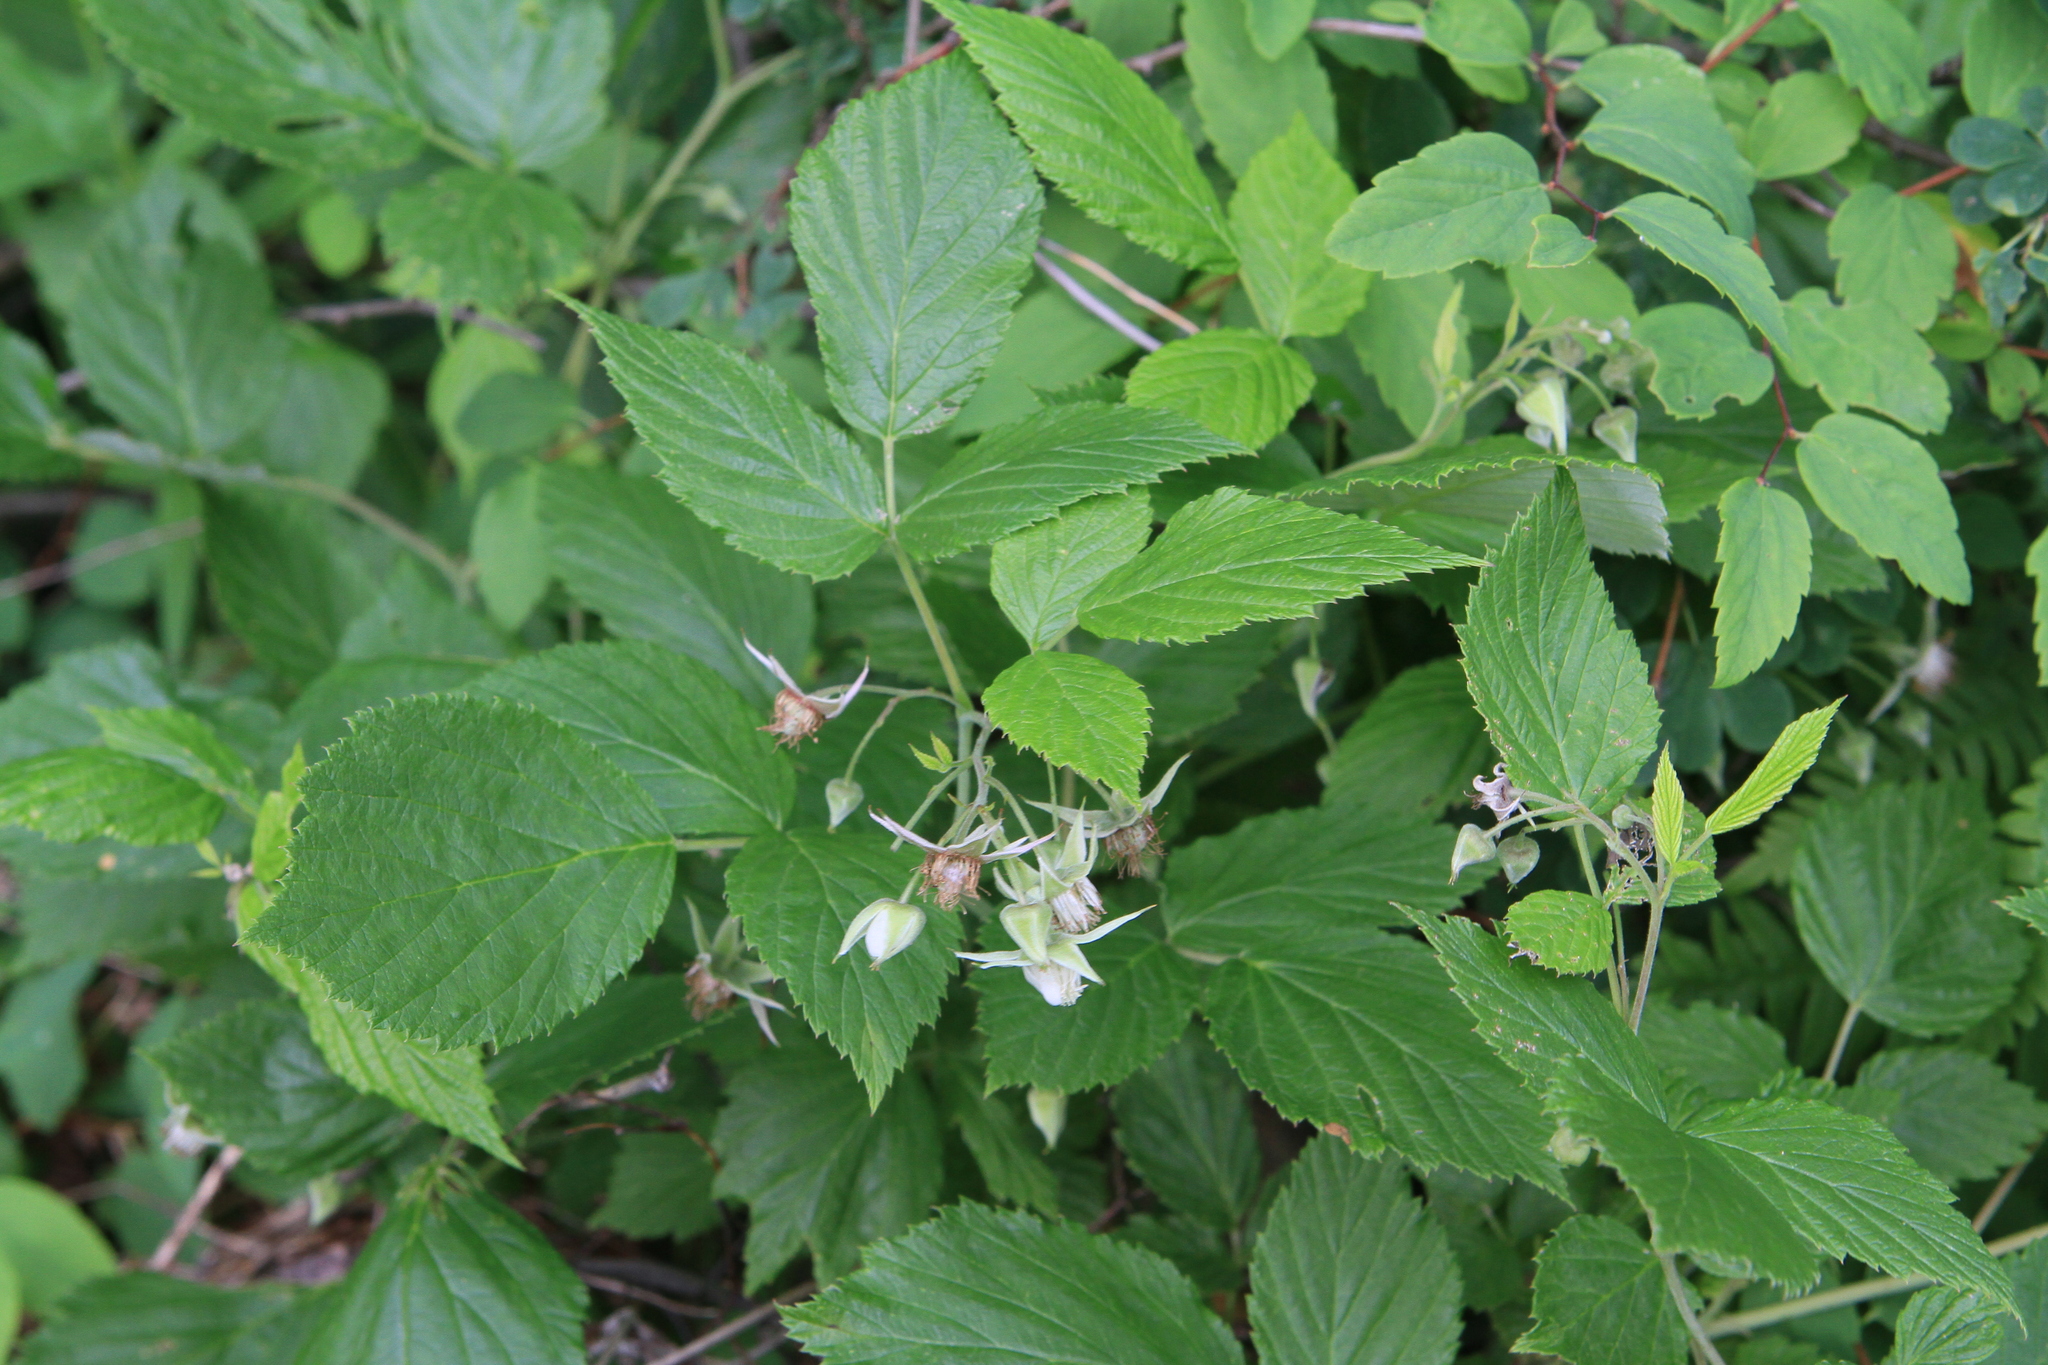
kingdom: Plantae
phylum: Tracheophyta
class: Magnoliopsida
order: Rosales
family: Rosaceae
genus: Rubus
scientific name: Rubus idaeus
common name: Raspberry
